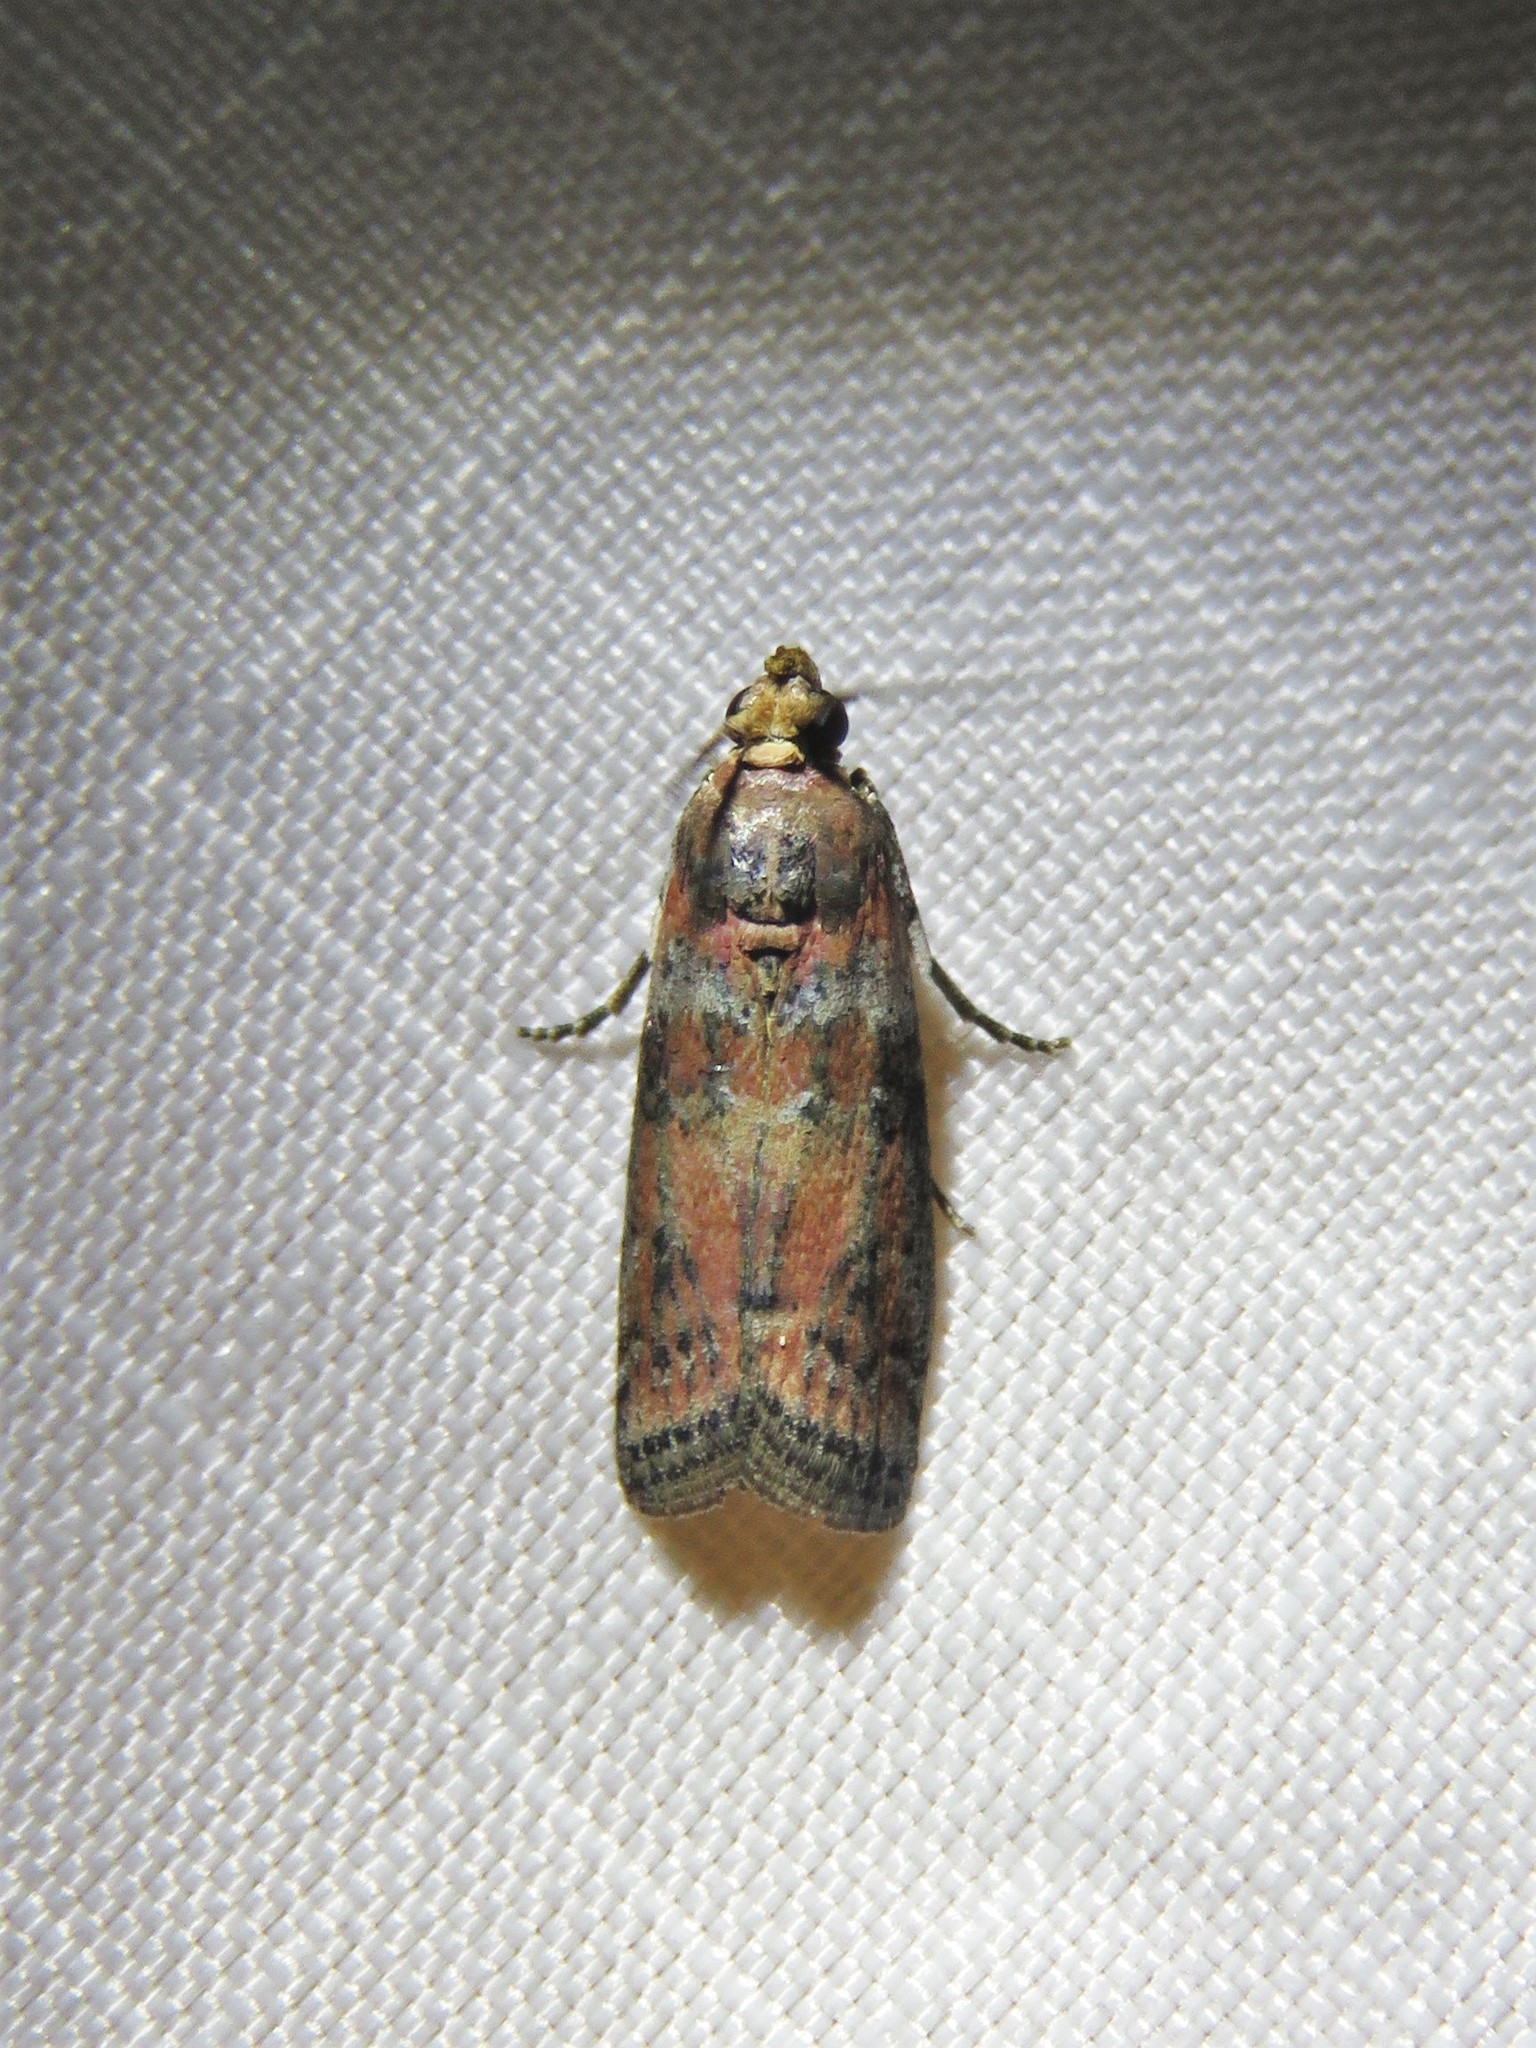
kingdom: Animalia
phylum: Arthropoda
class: Insecta
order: Lepidoptera
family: Pyralidae
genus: Sciota
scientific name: Sciota
